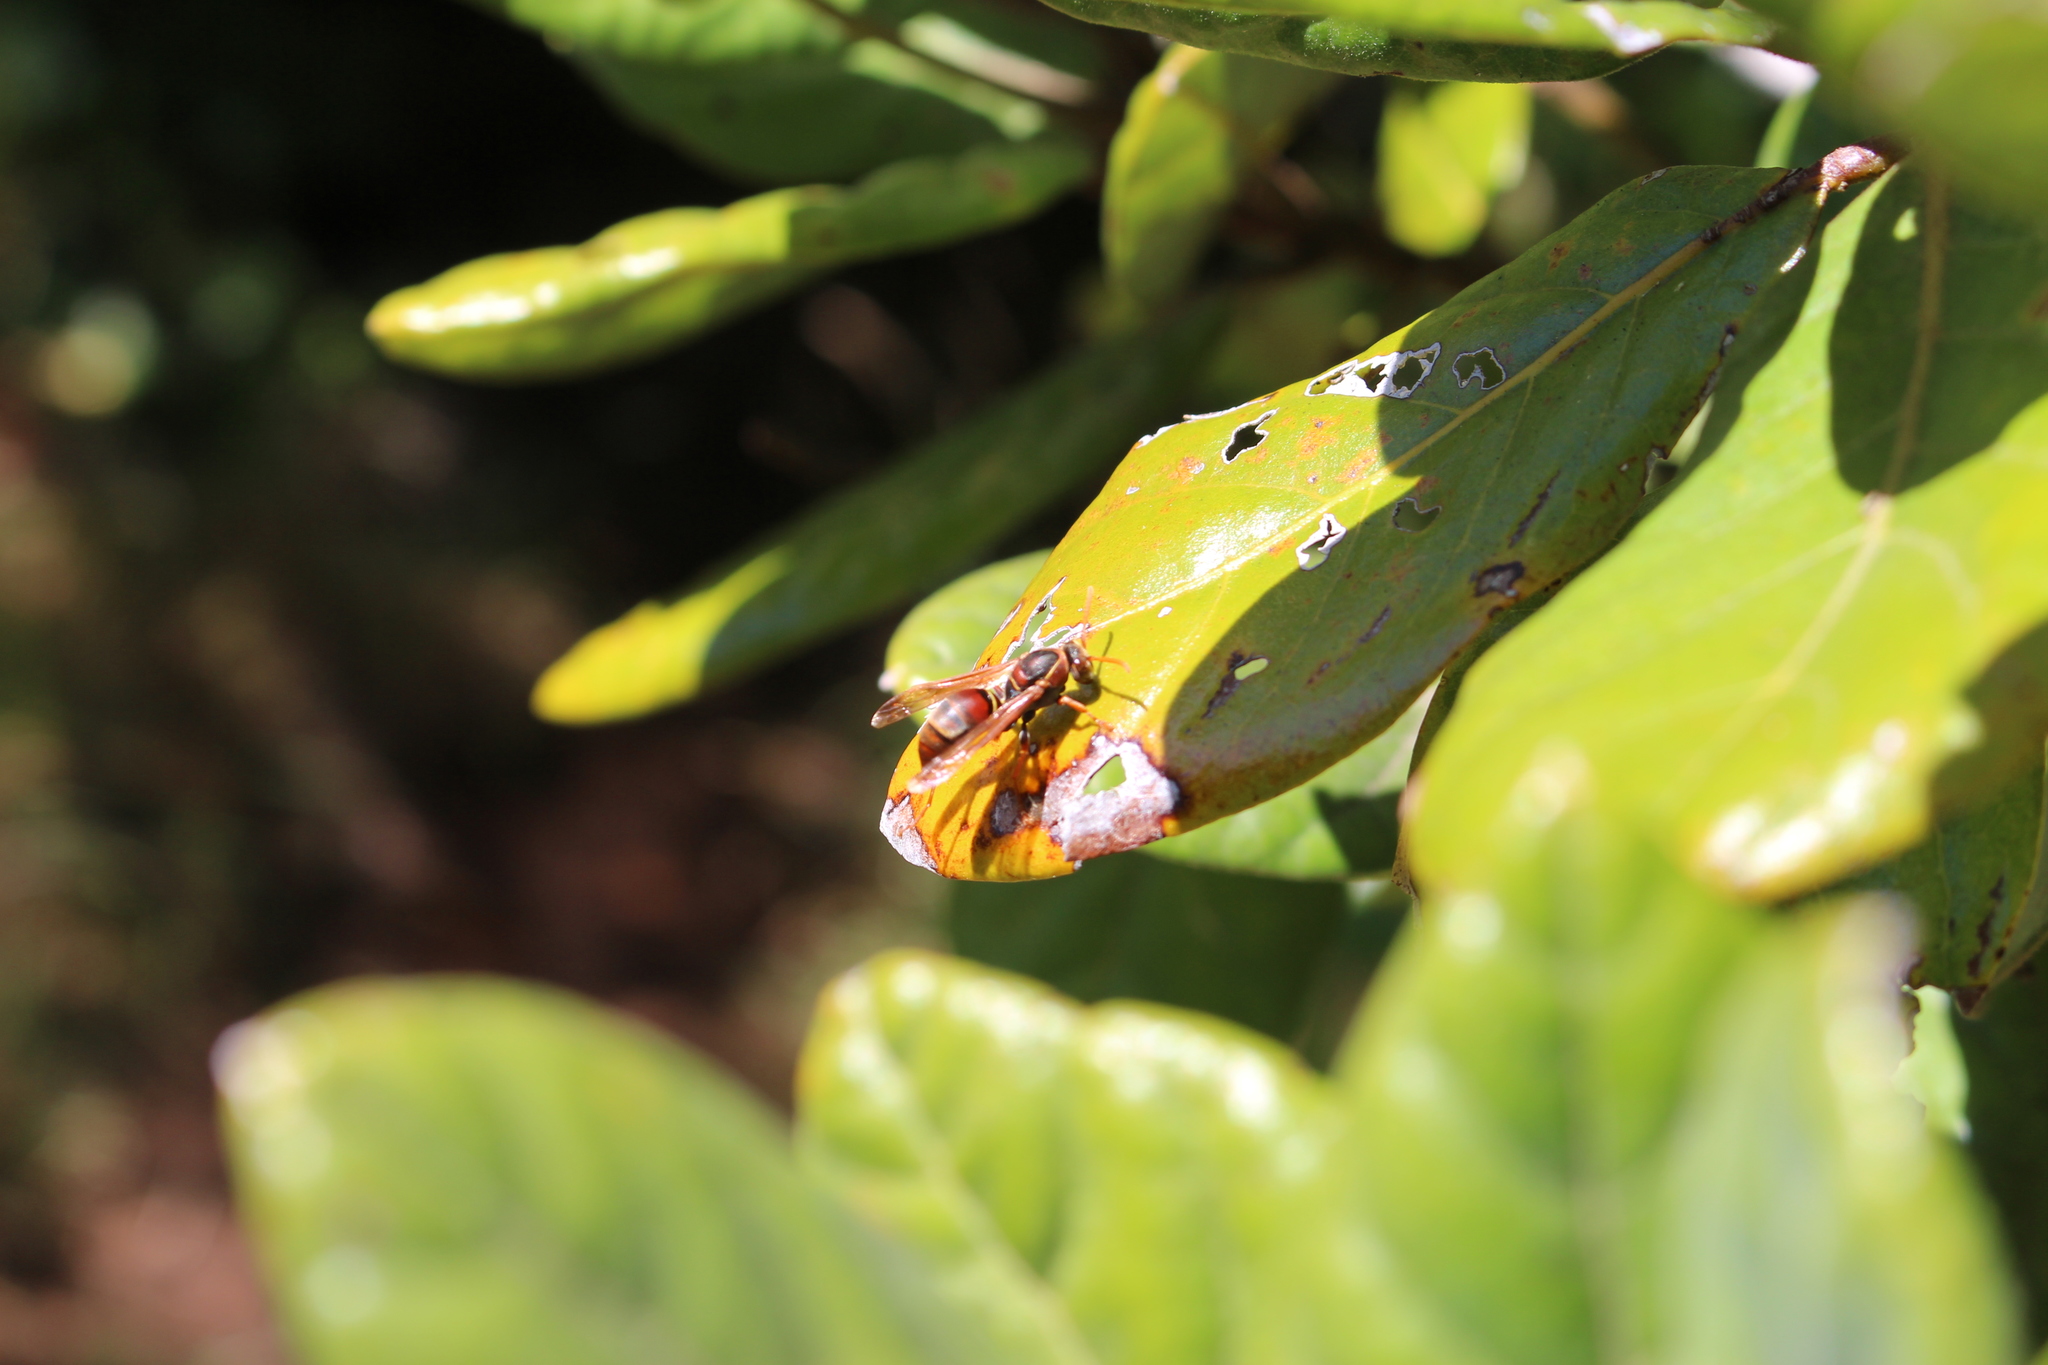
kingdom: Animalia
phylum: Arthropoda
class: Insecta
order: Hymenoptera
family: Eumenidae
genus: Polistes
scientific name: Polistes humilis
